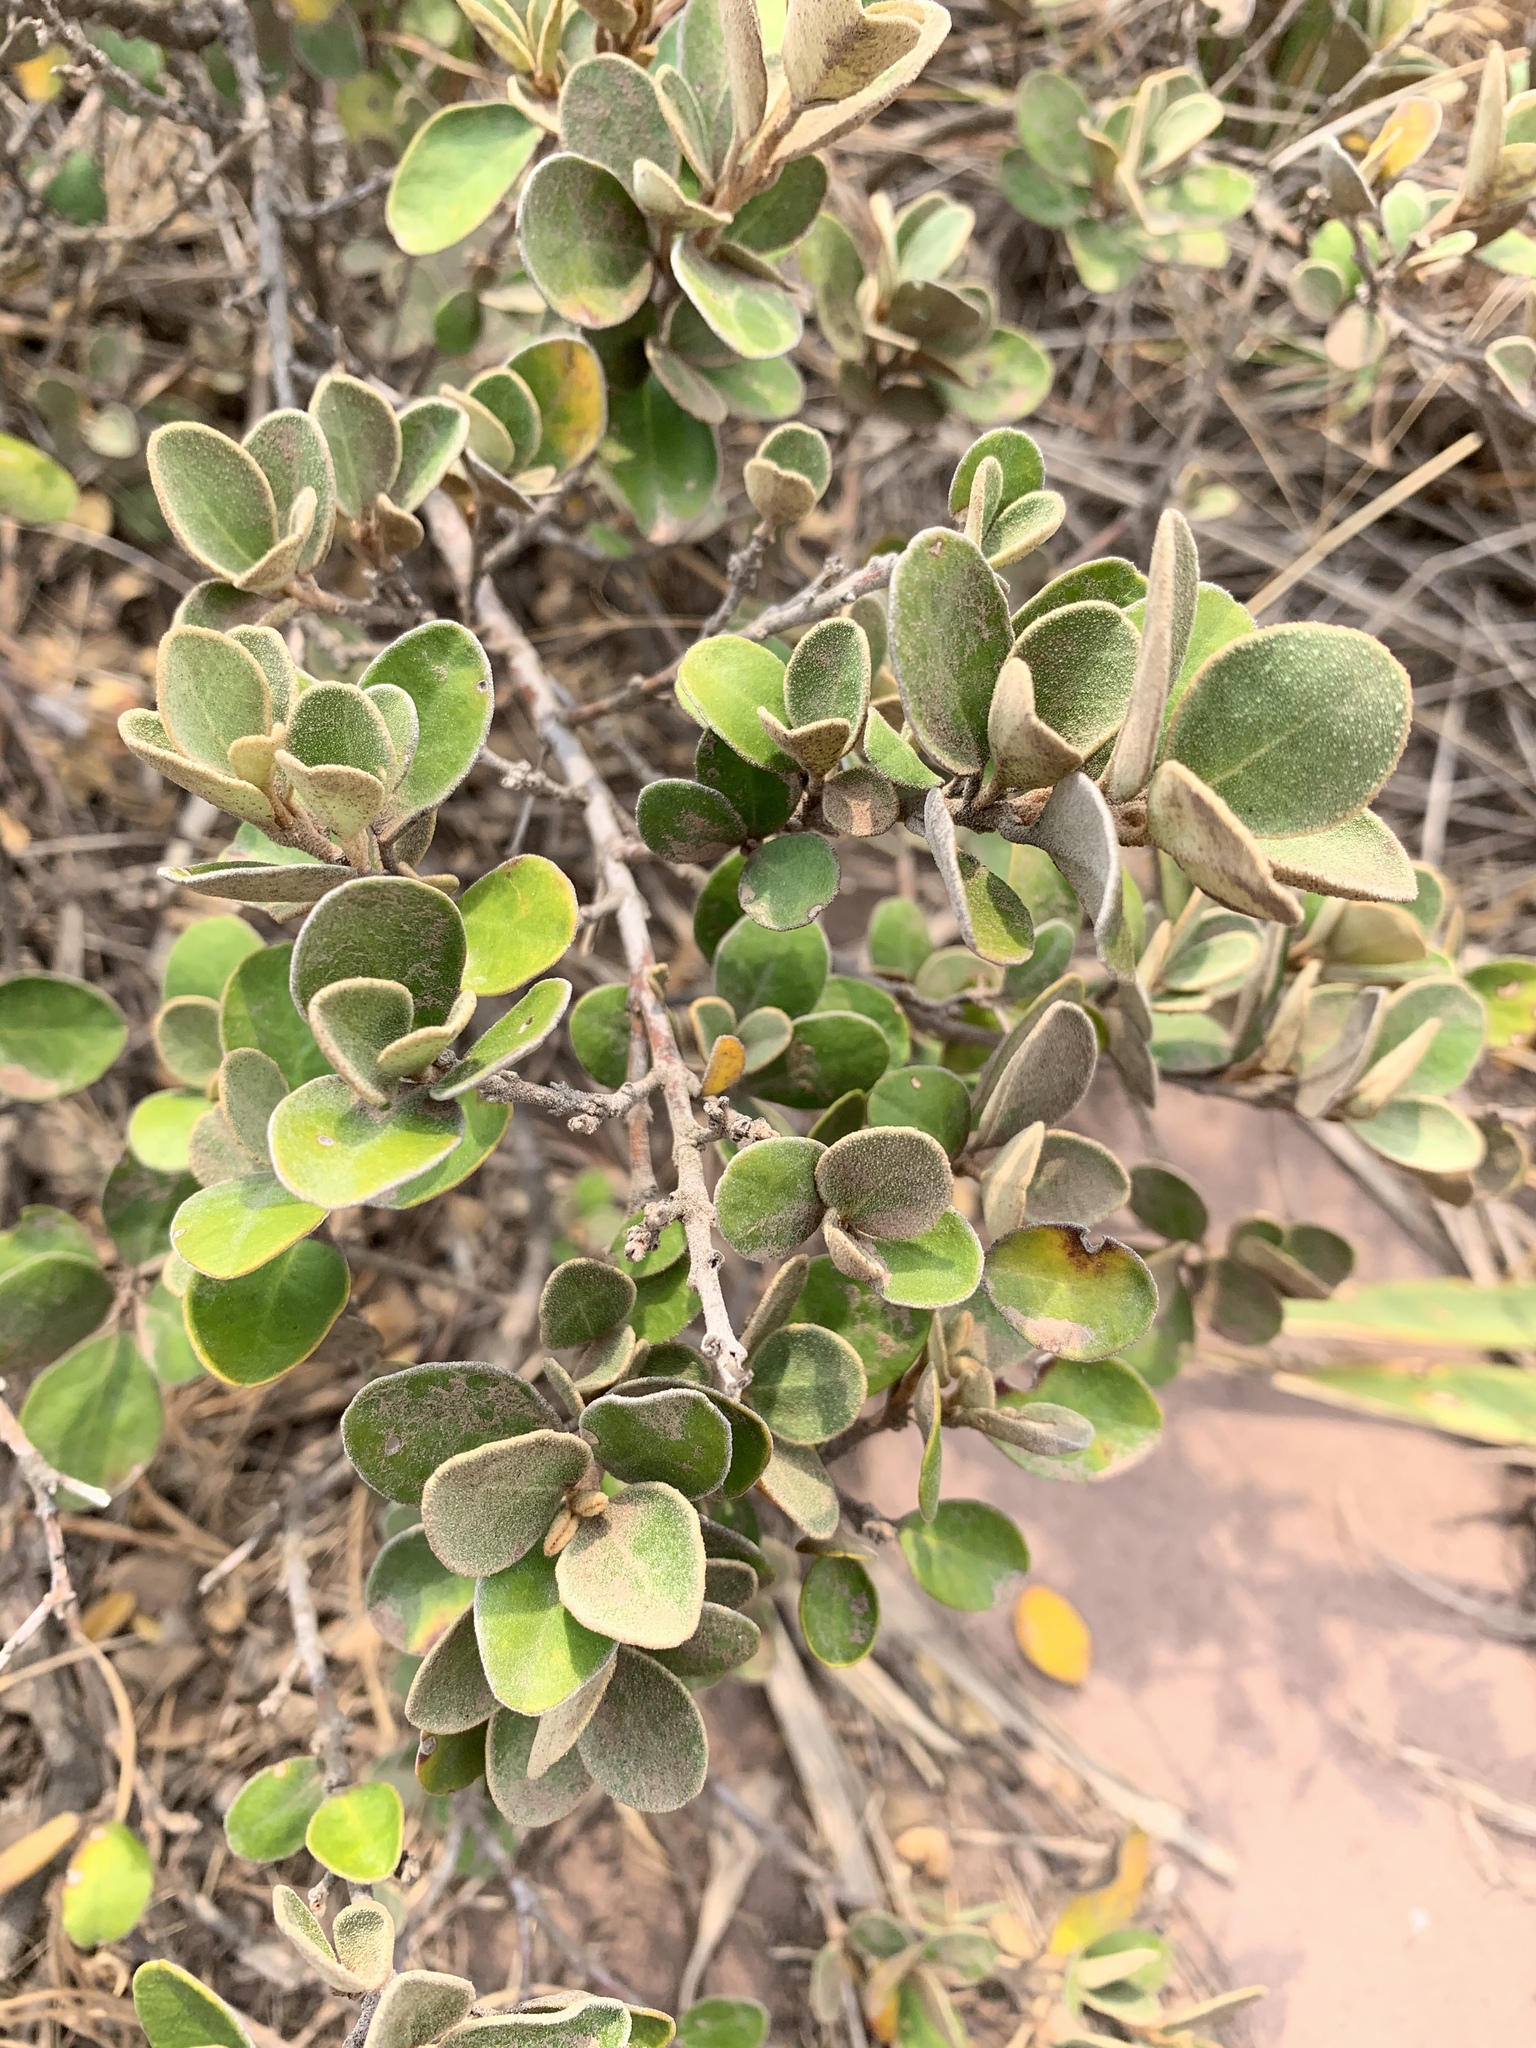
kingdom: Plantae
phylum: Tracheophyta
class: Magnoliopsida
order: Sapindales
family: Rutaceae
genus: Correa
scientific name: Correa alba
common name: White correa
